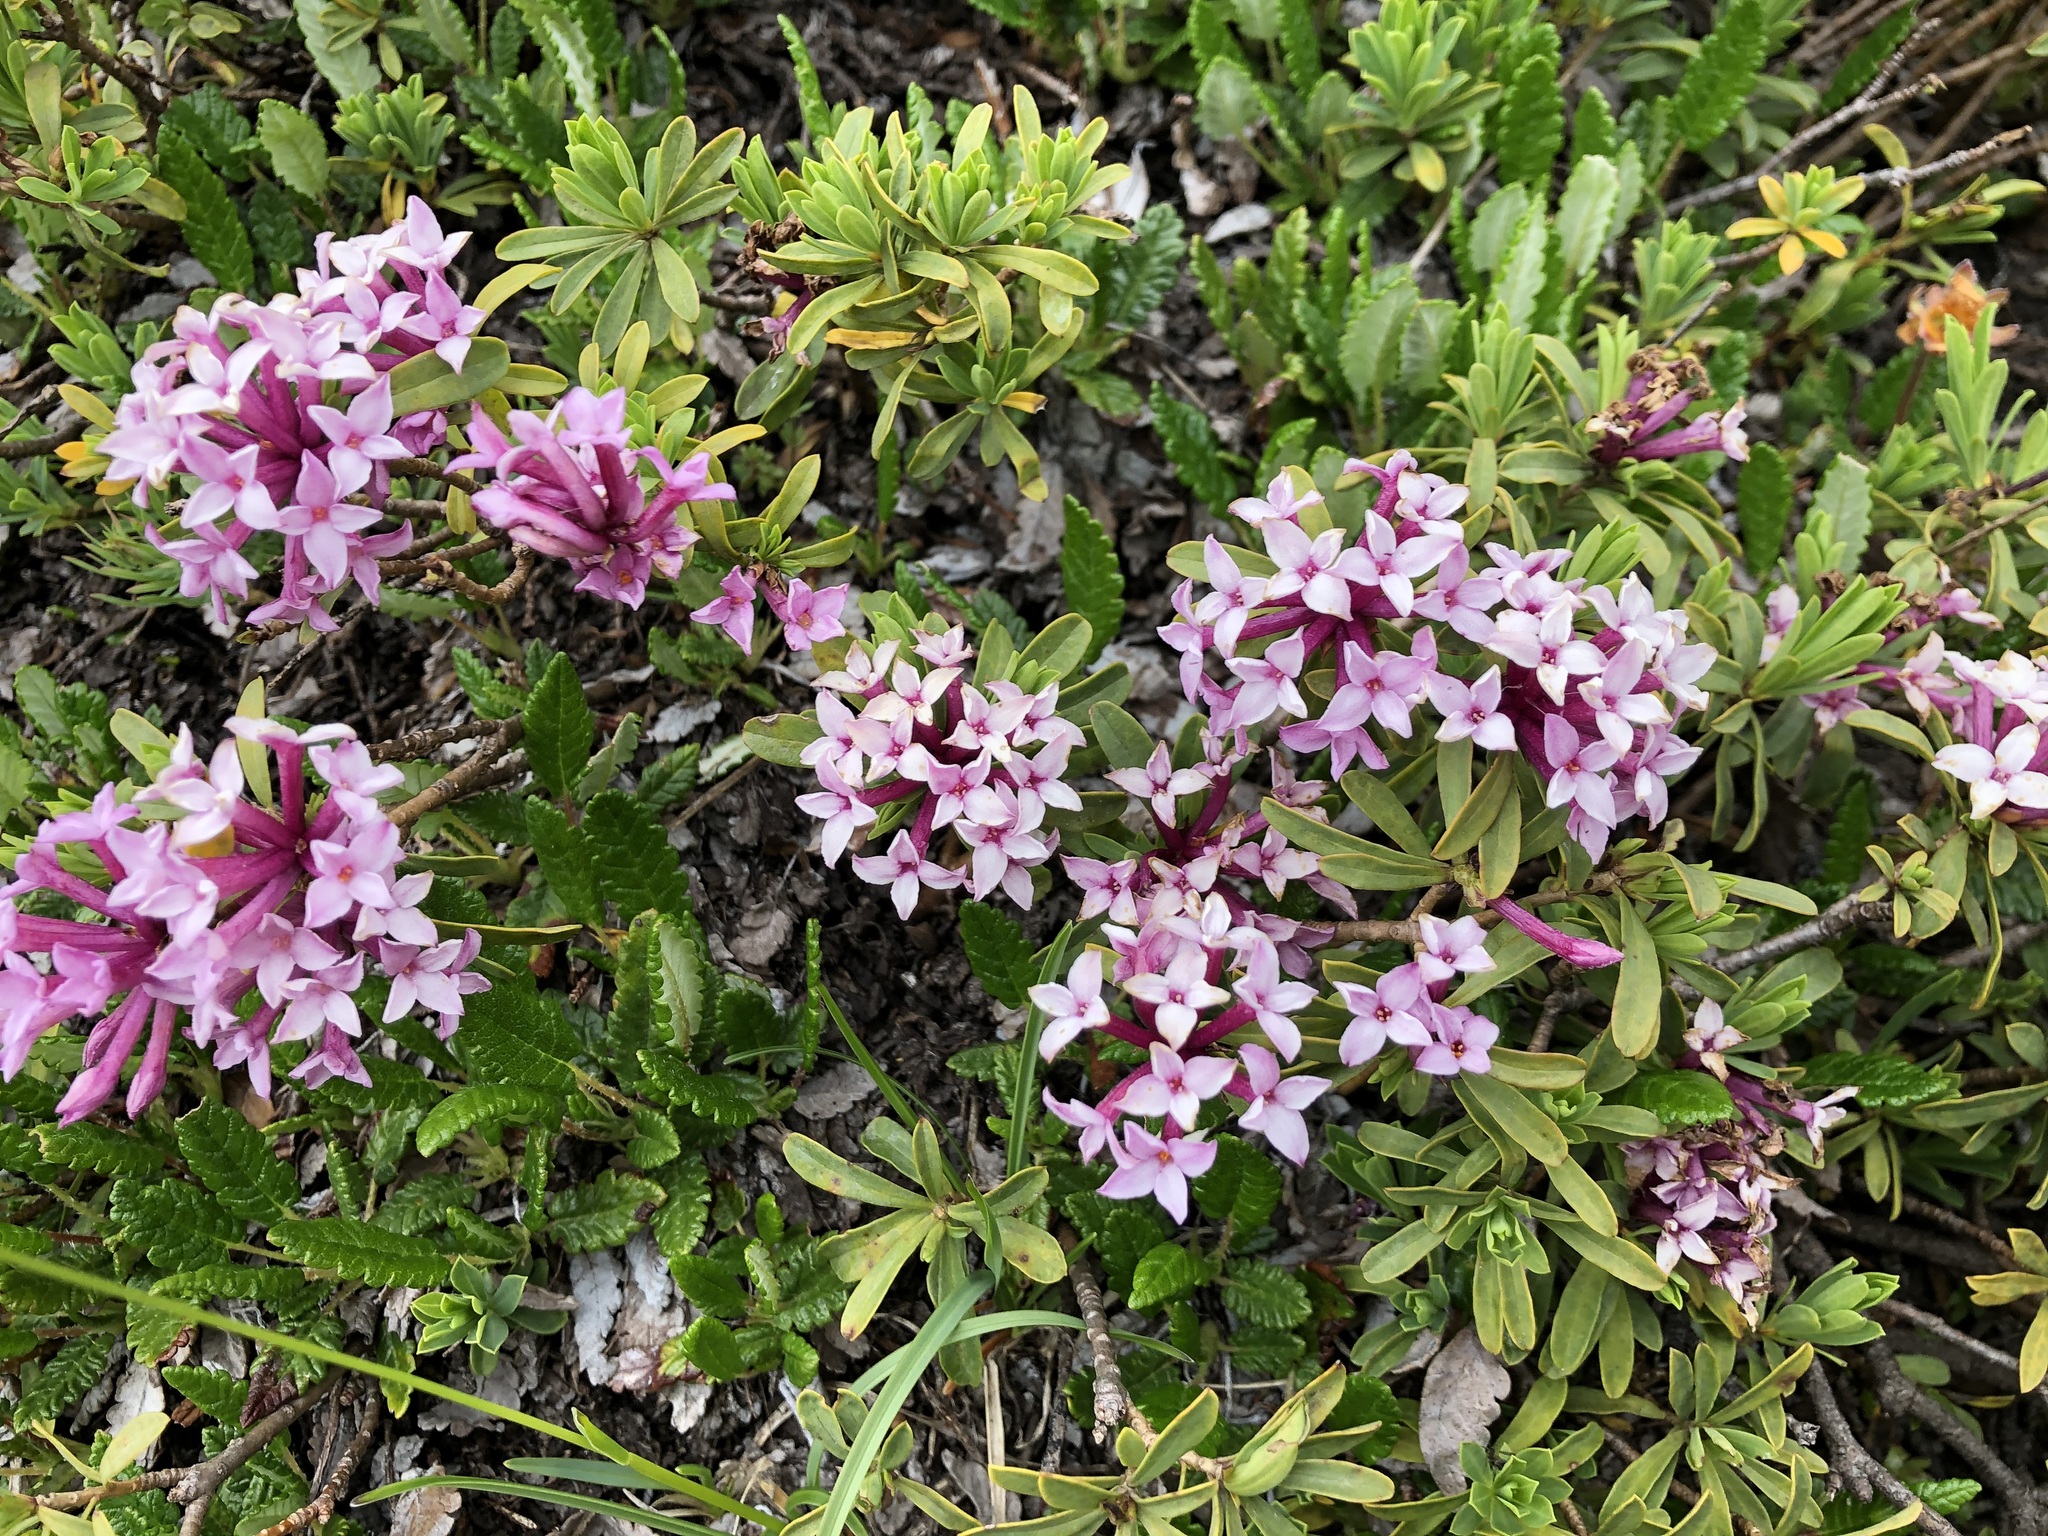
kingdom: Plantae
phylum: Tracheophyta
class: Magnoliopsida
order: Malvales
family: Thymelaeaceae
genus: Daphne
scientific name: Daphne striata
